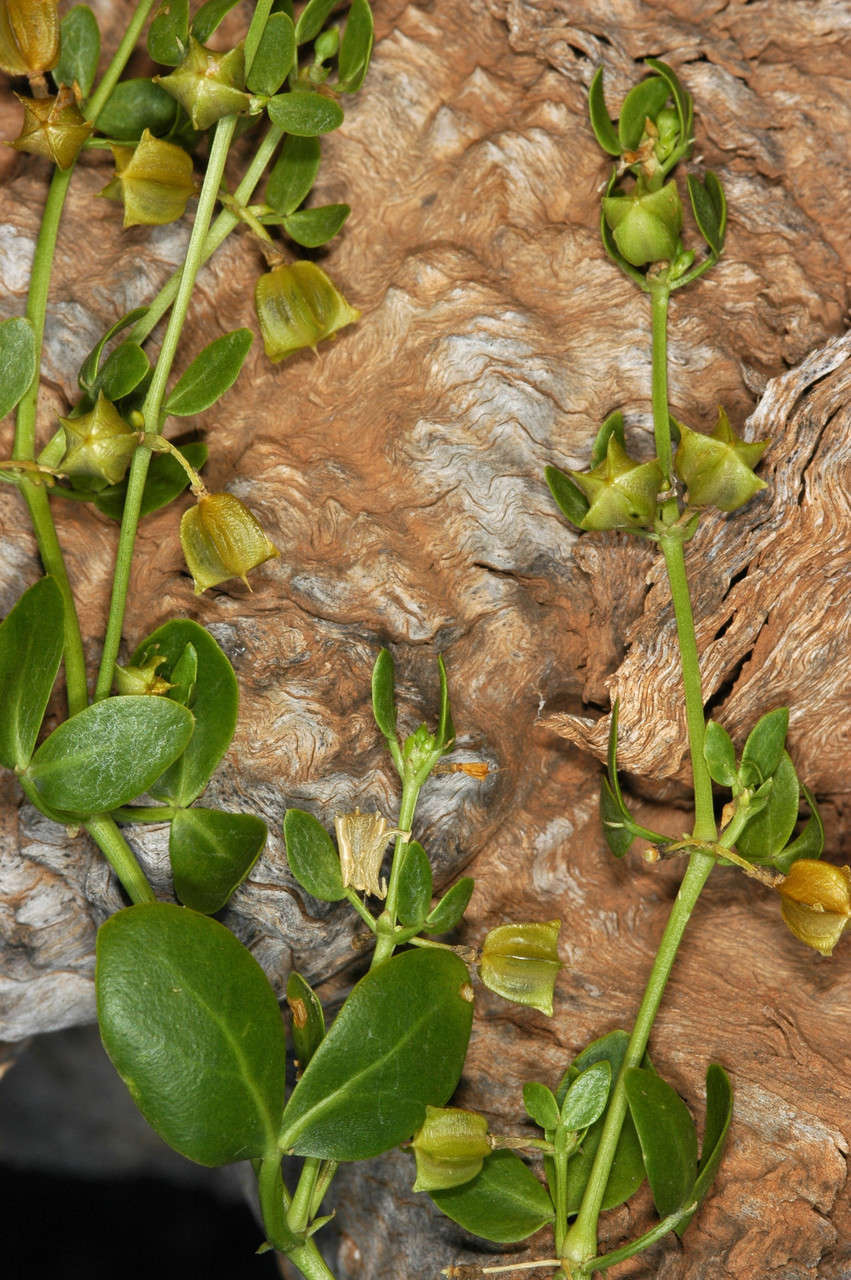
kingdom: Plantae
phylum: Tracheophyta
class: Magnoliopsida
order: Zygophyllales
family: Zygophyllaceae
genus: Roepera
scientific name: Roepera apiculata
